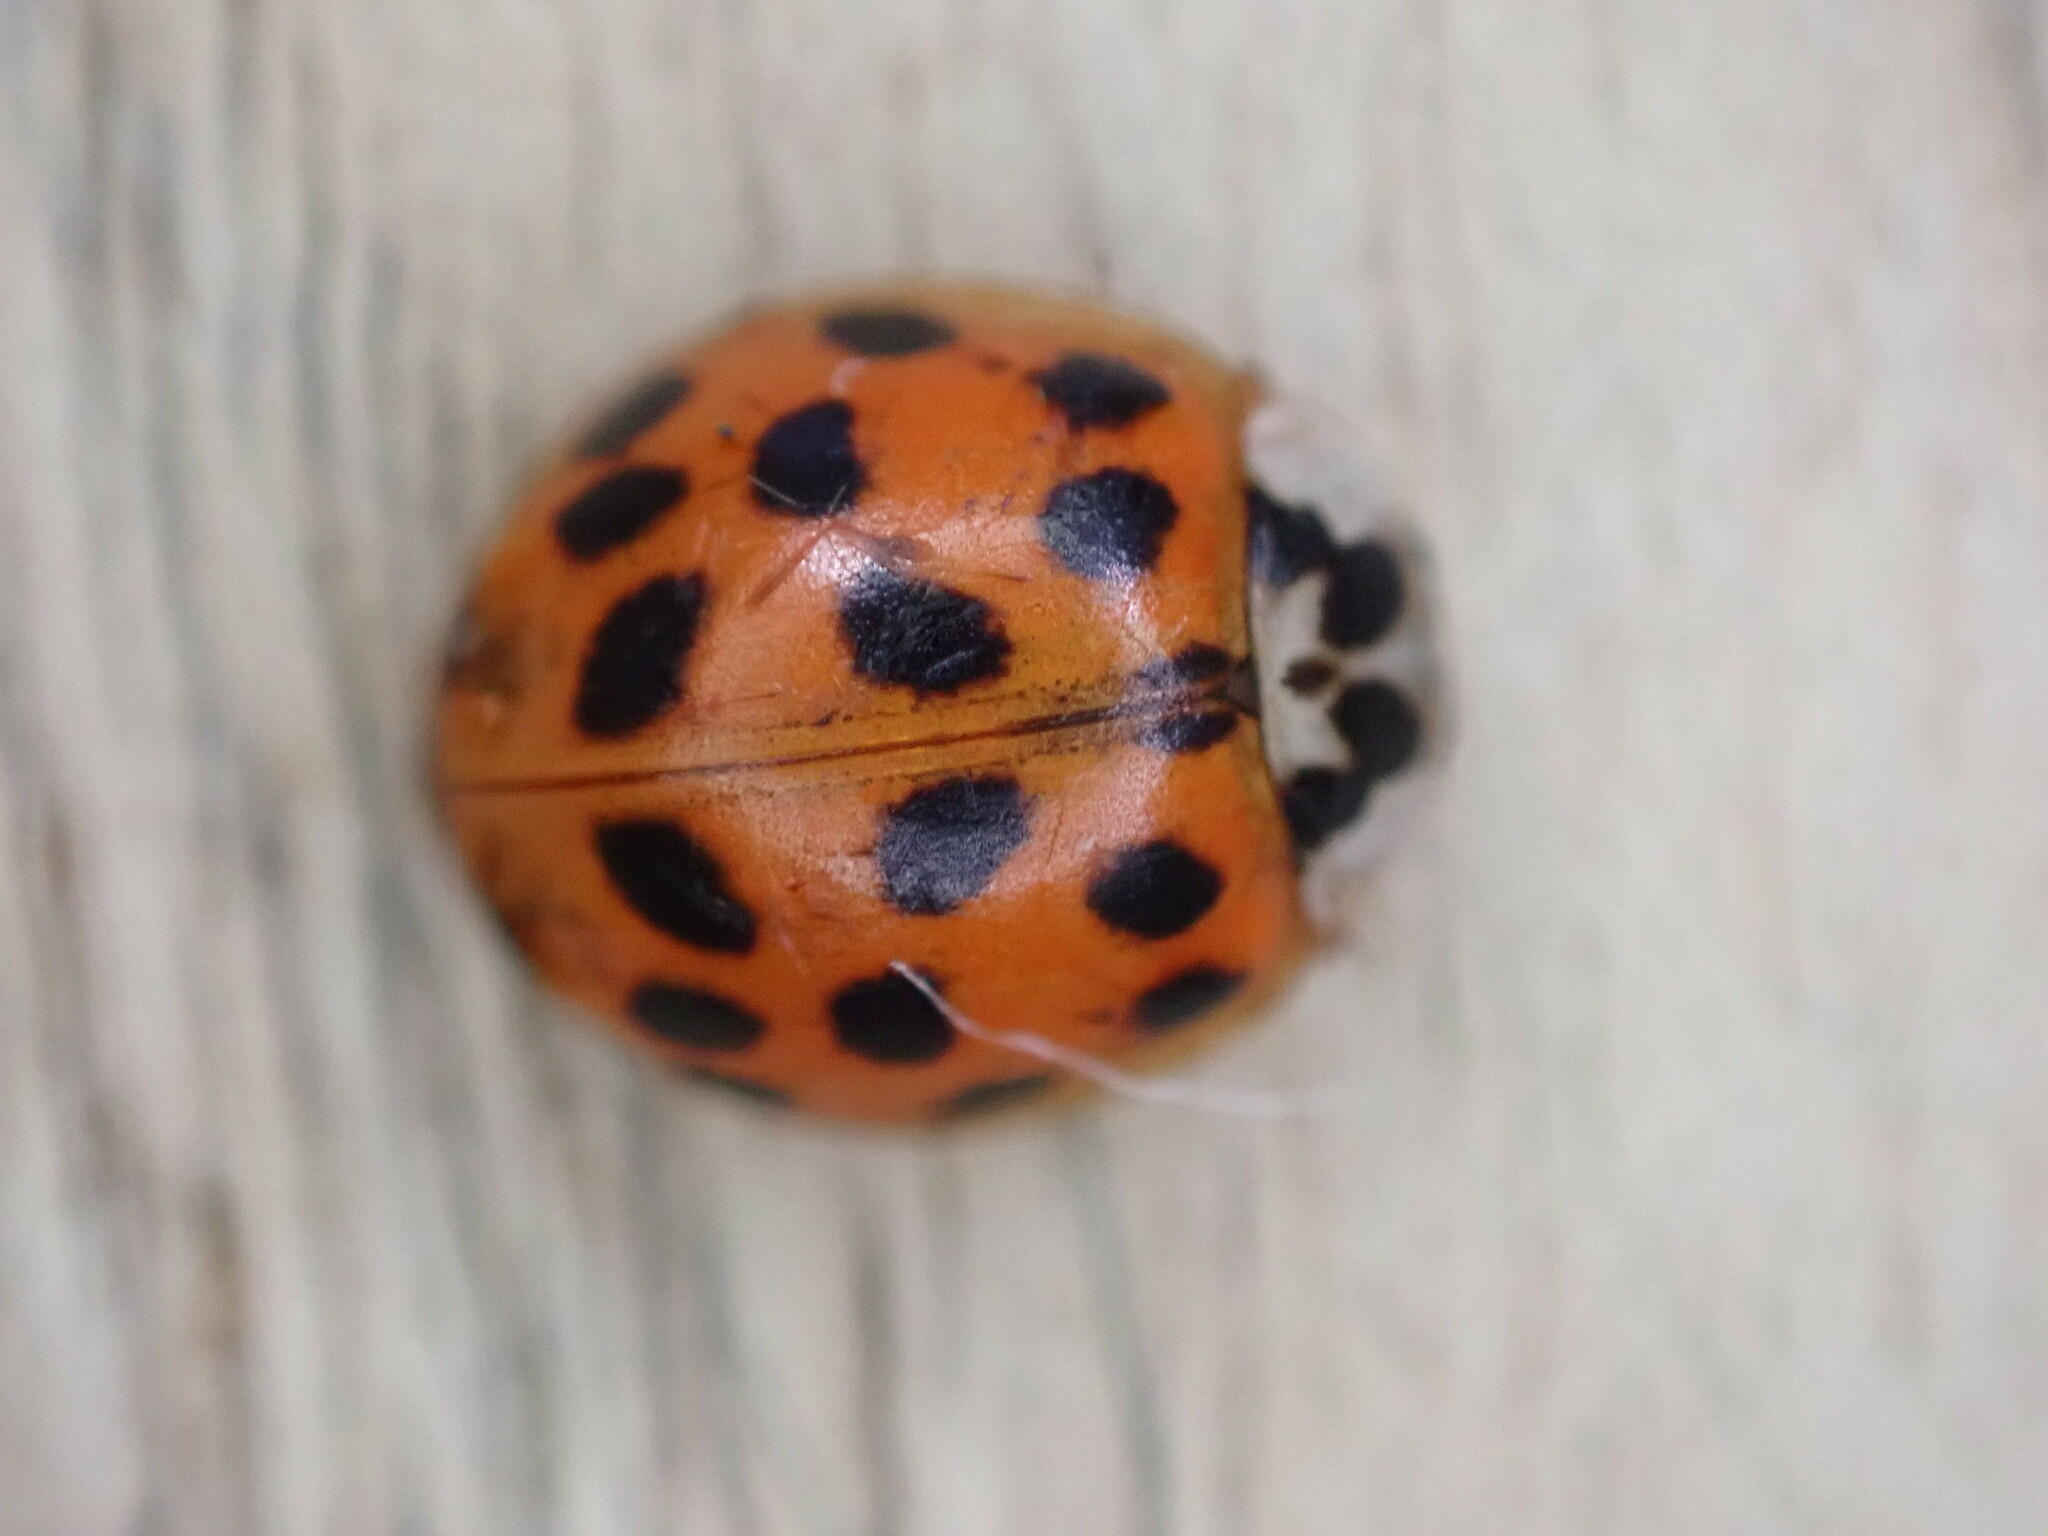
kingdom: Animalia
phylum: Arthropoda
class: Insecta
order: Coleoptera
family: Coccinellidae
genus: Harmonia
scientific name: Harmonia axyridis
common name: Harlequin ladybird
